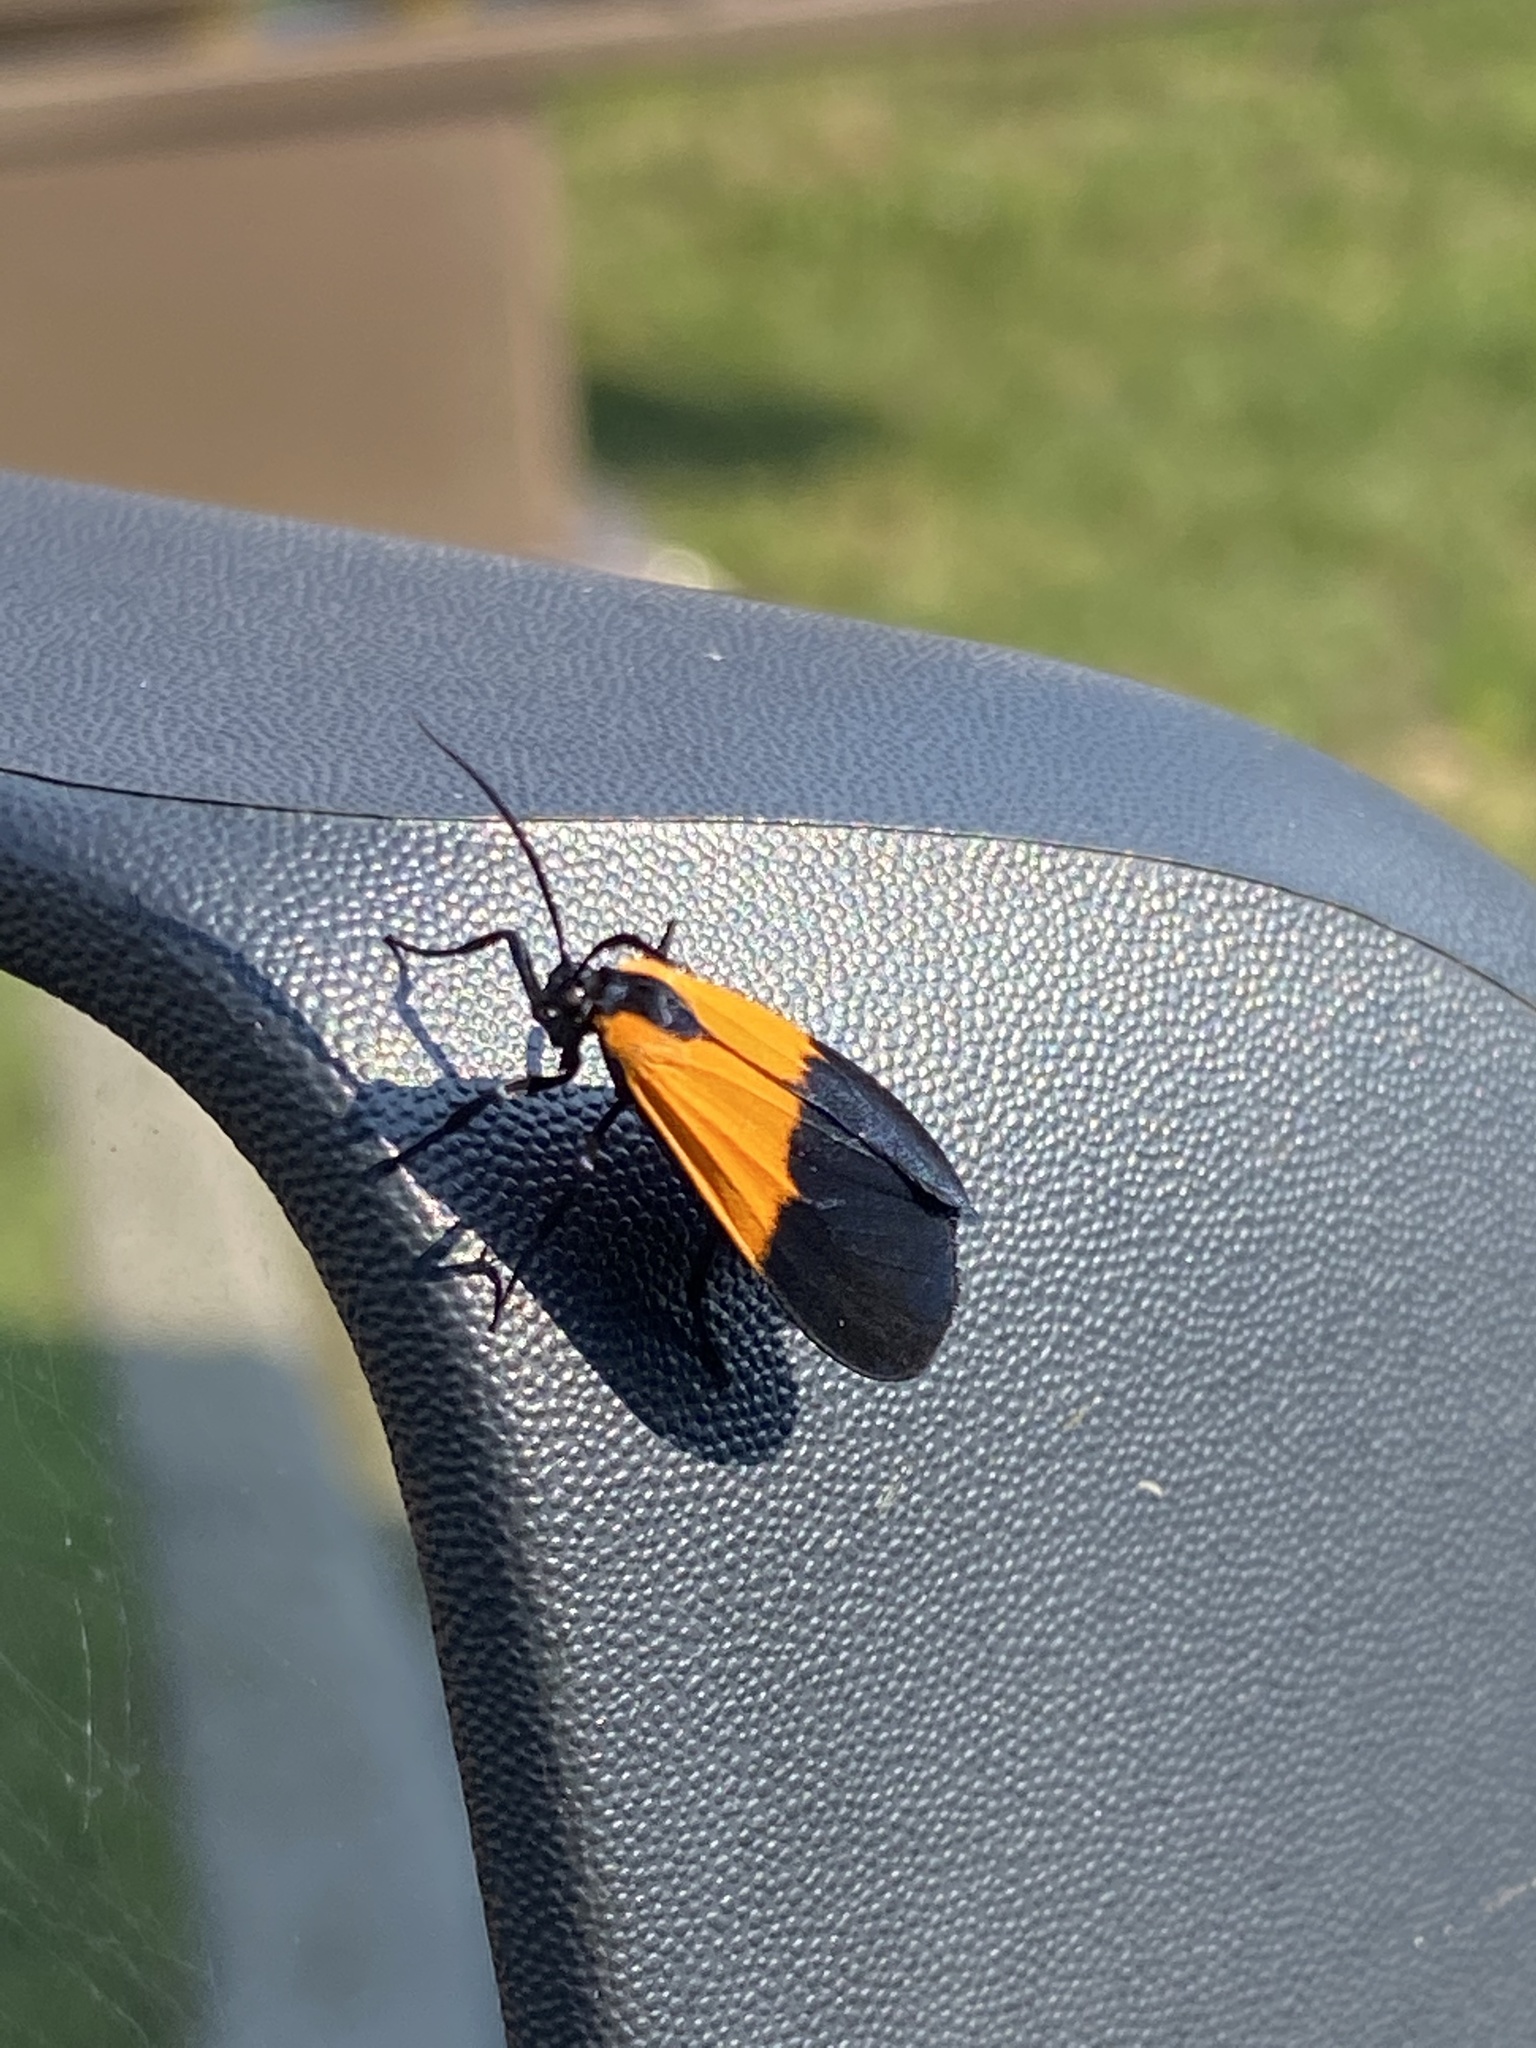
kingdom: Animalia
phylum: Arthropoda
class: Insecta
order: Lepidoptera
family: Erebidae
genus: Lycomorpha
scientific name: Lycomorpha pholus
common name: Black-and-yellow lichen moth
